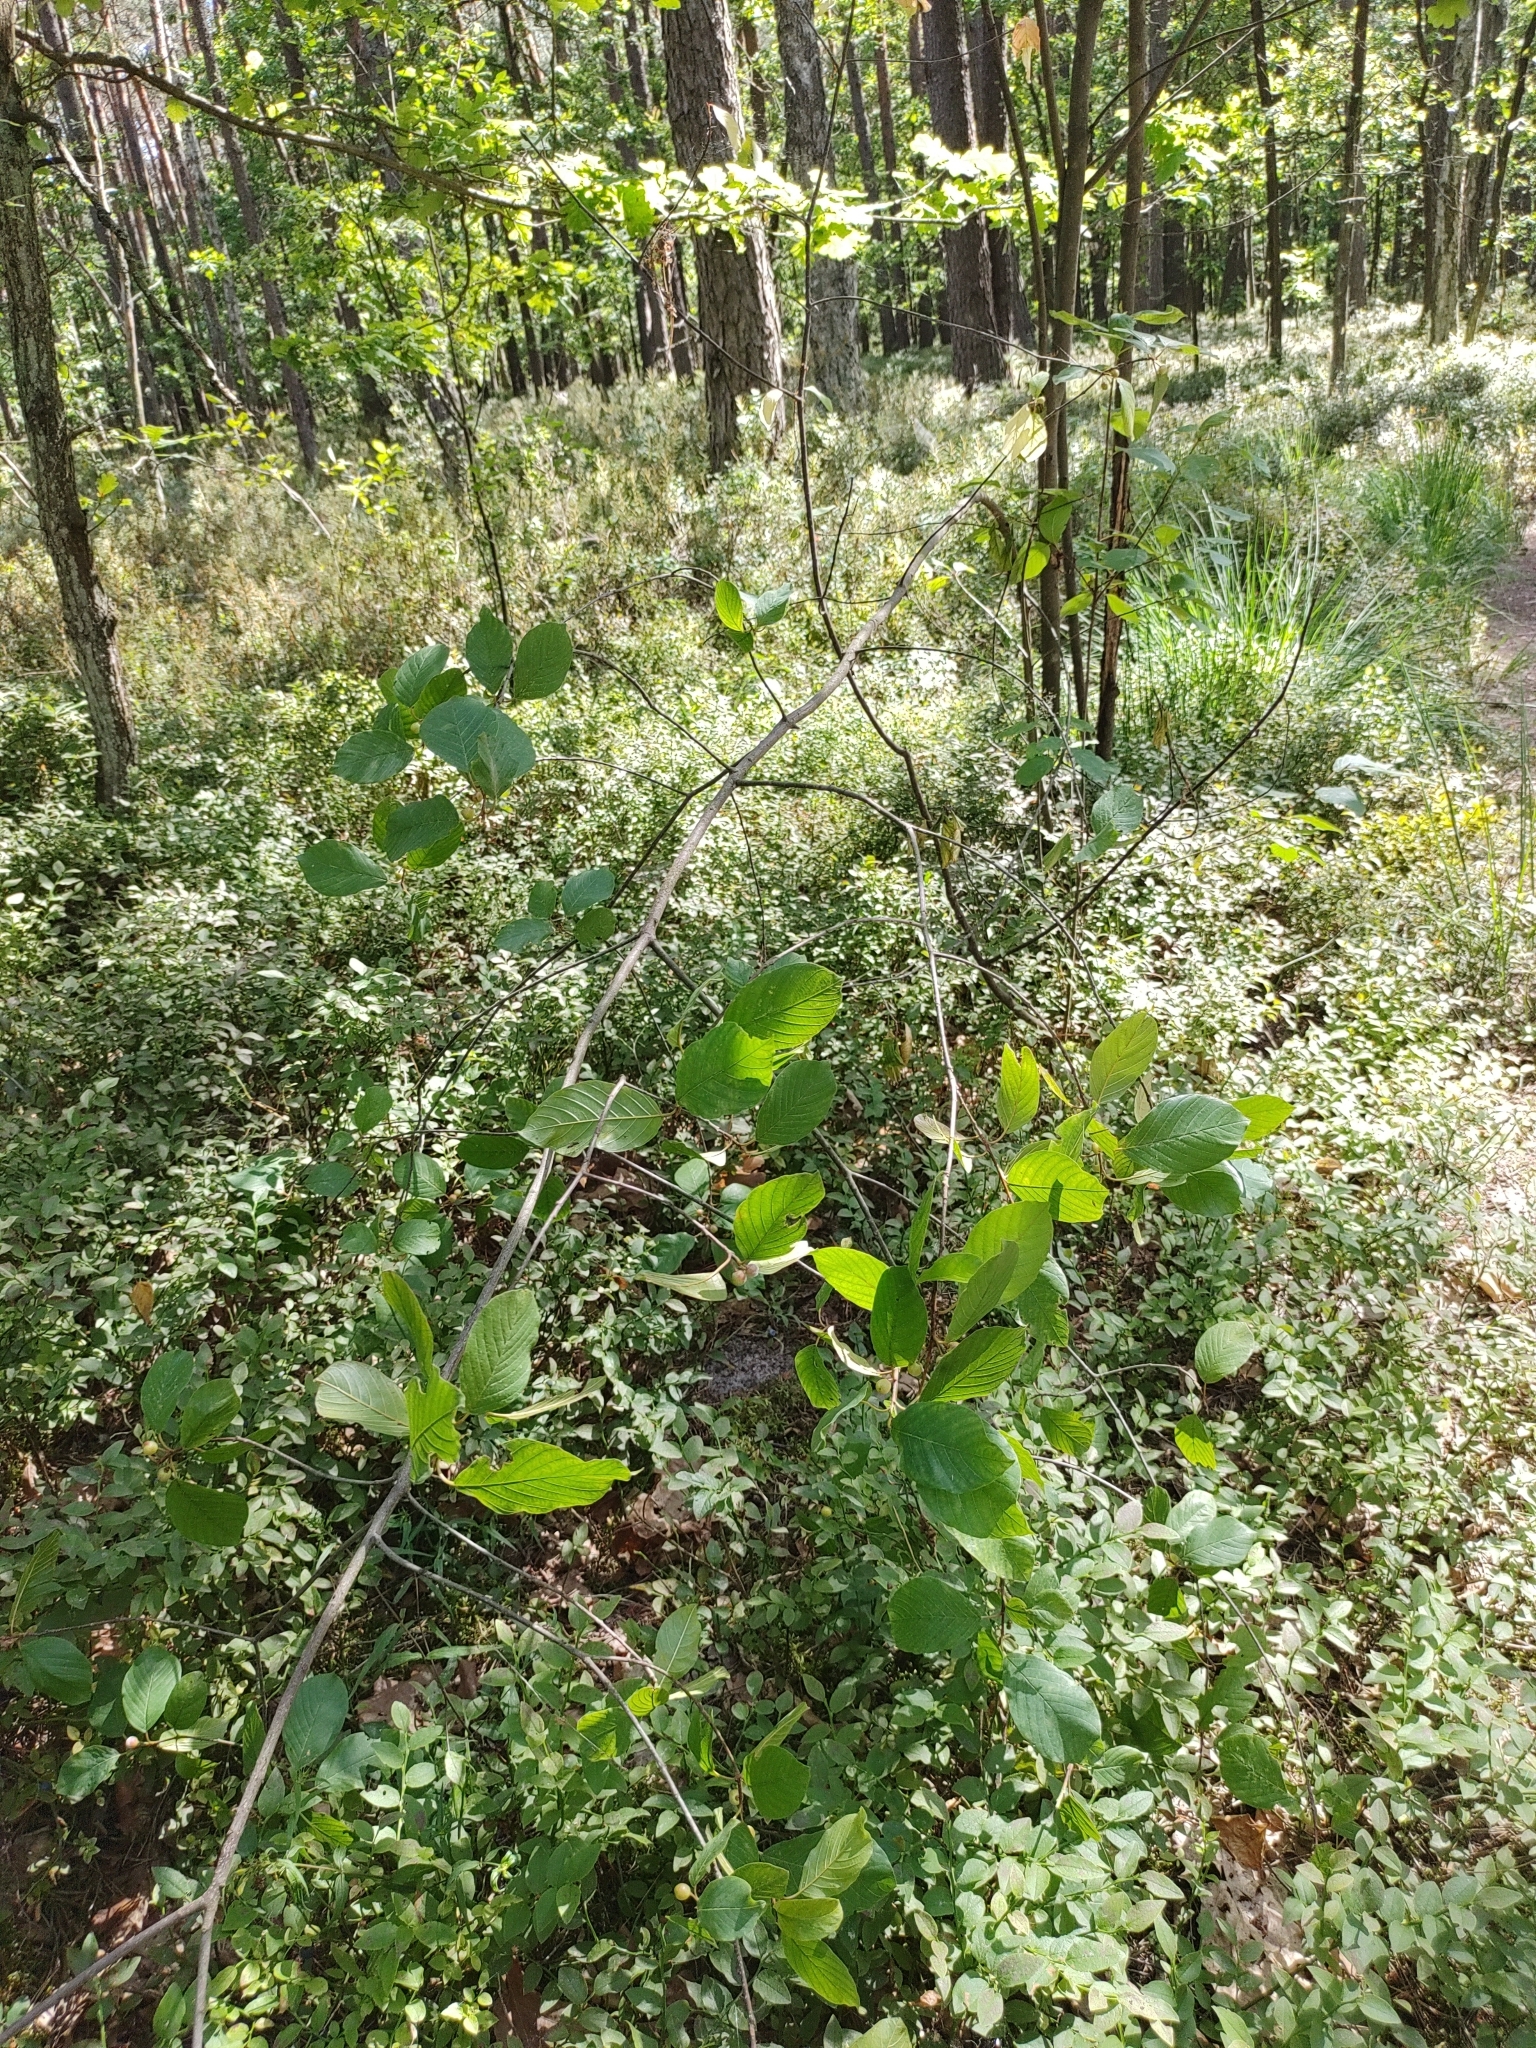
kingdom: Plantae
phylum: Tracheophyta
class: Magnoliopsida
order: Rosales
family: Rhamnaceae
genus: Frangula
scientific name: Frangula alnus
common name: Alder buckthorn
